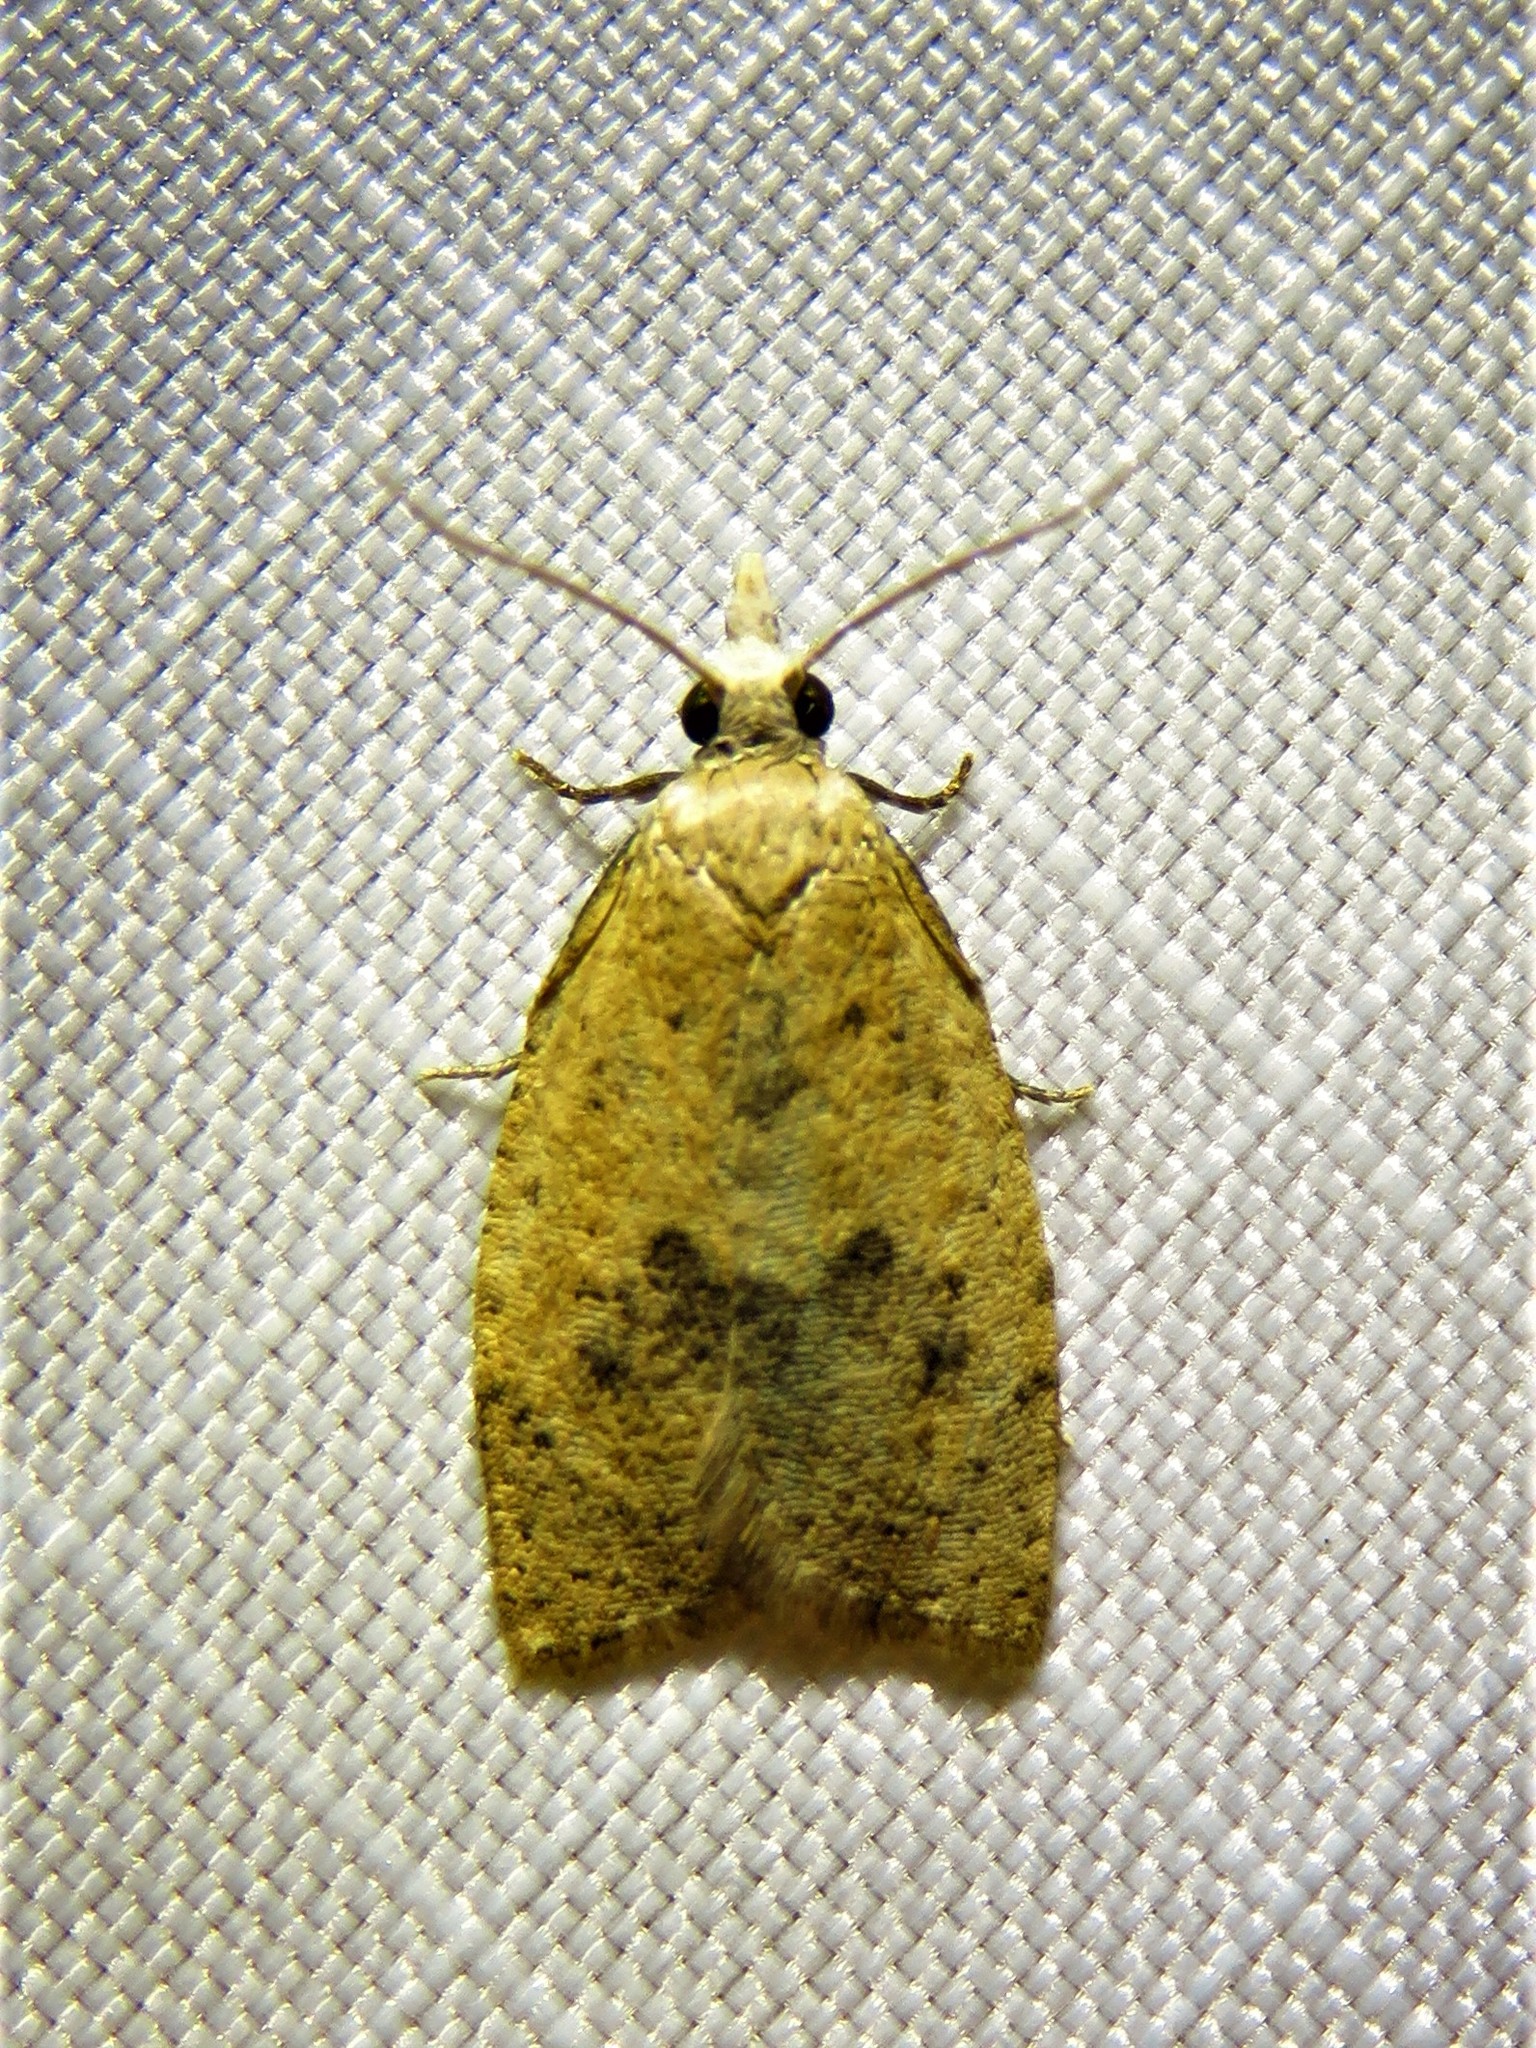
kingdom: Animalia
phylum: Arthropoda
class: Insecta
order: Lepidoptera
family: Tortricidae
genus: Sparganothoides
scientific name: Sparganothoides lentiginosana
